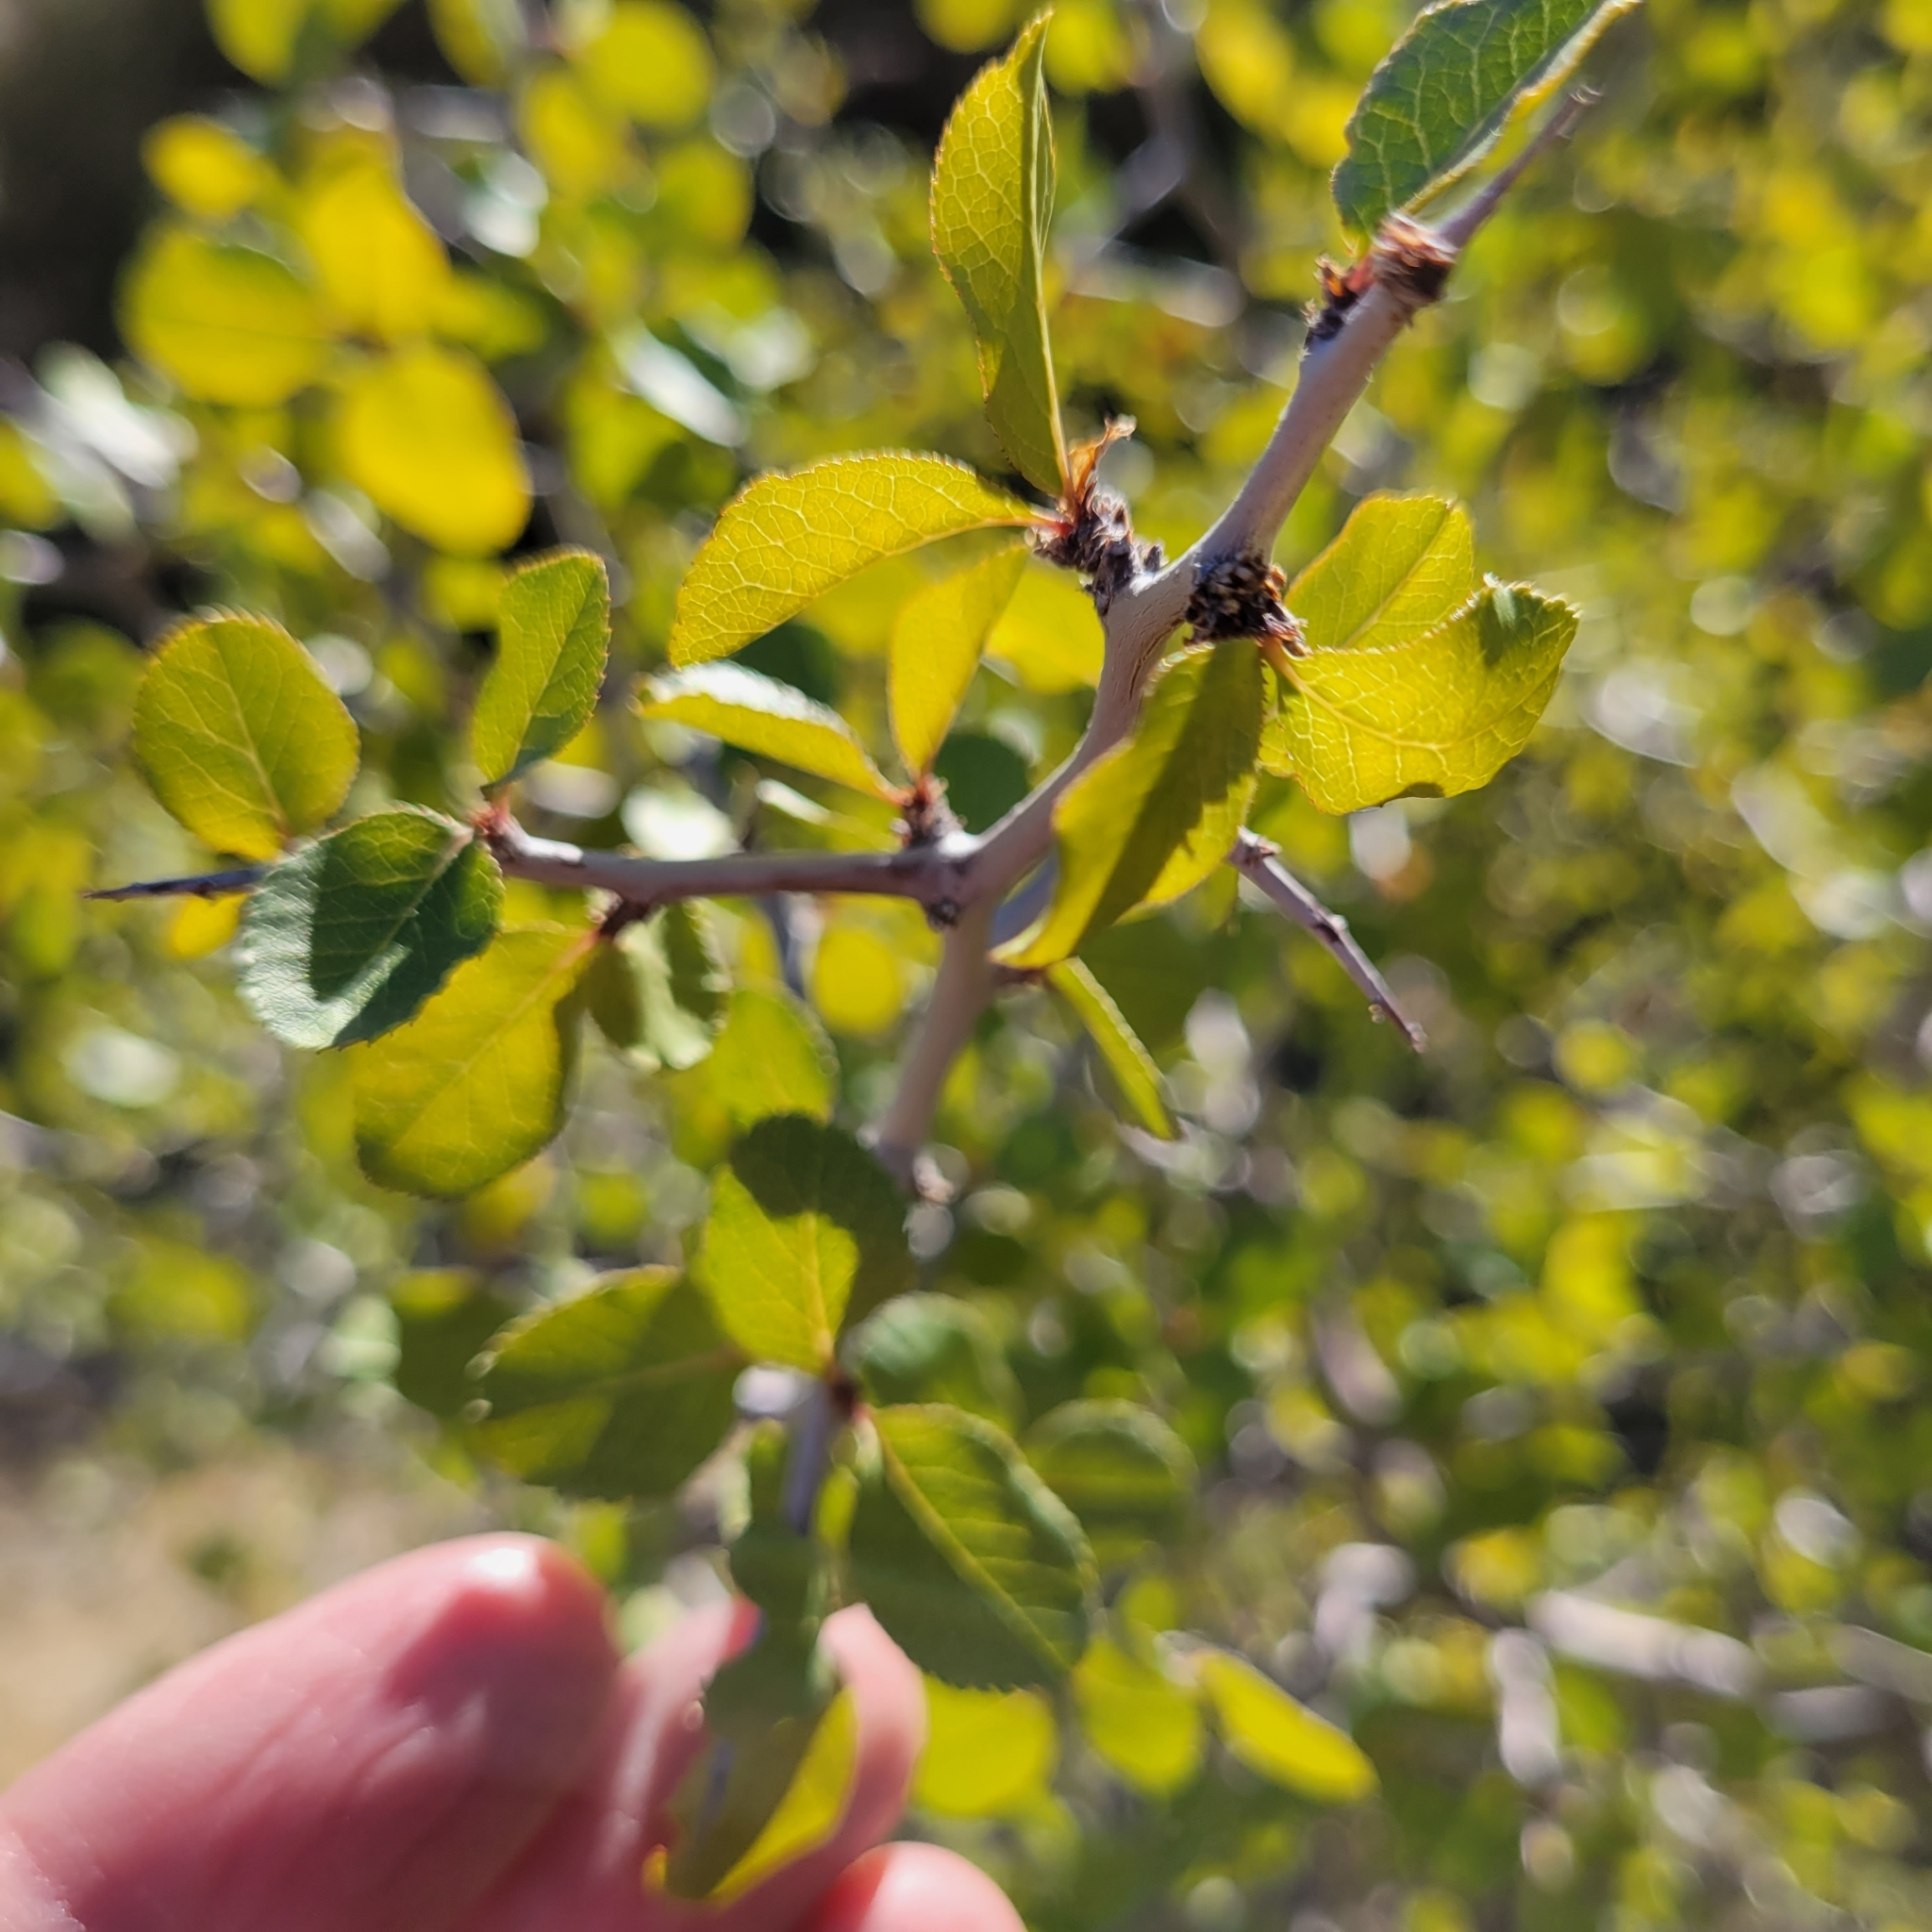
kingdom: Plantae
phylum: Tracheophyta
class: Magnoliopsida
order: Rosales
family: Rosaceae
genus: Prunus
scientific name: Prunus fremontii
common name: Desert apricot
